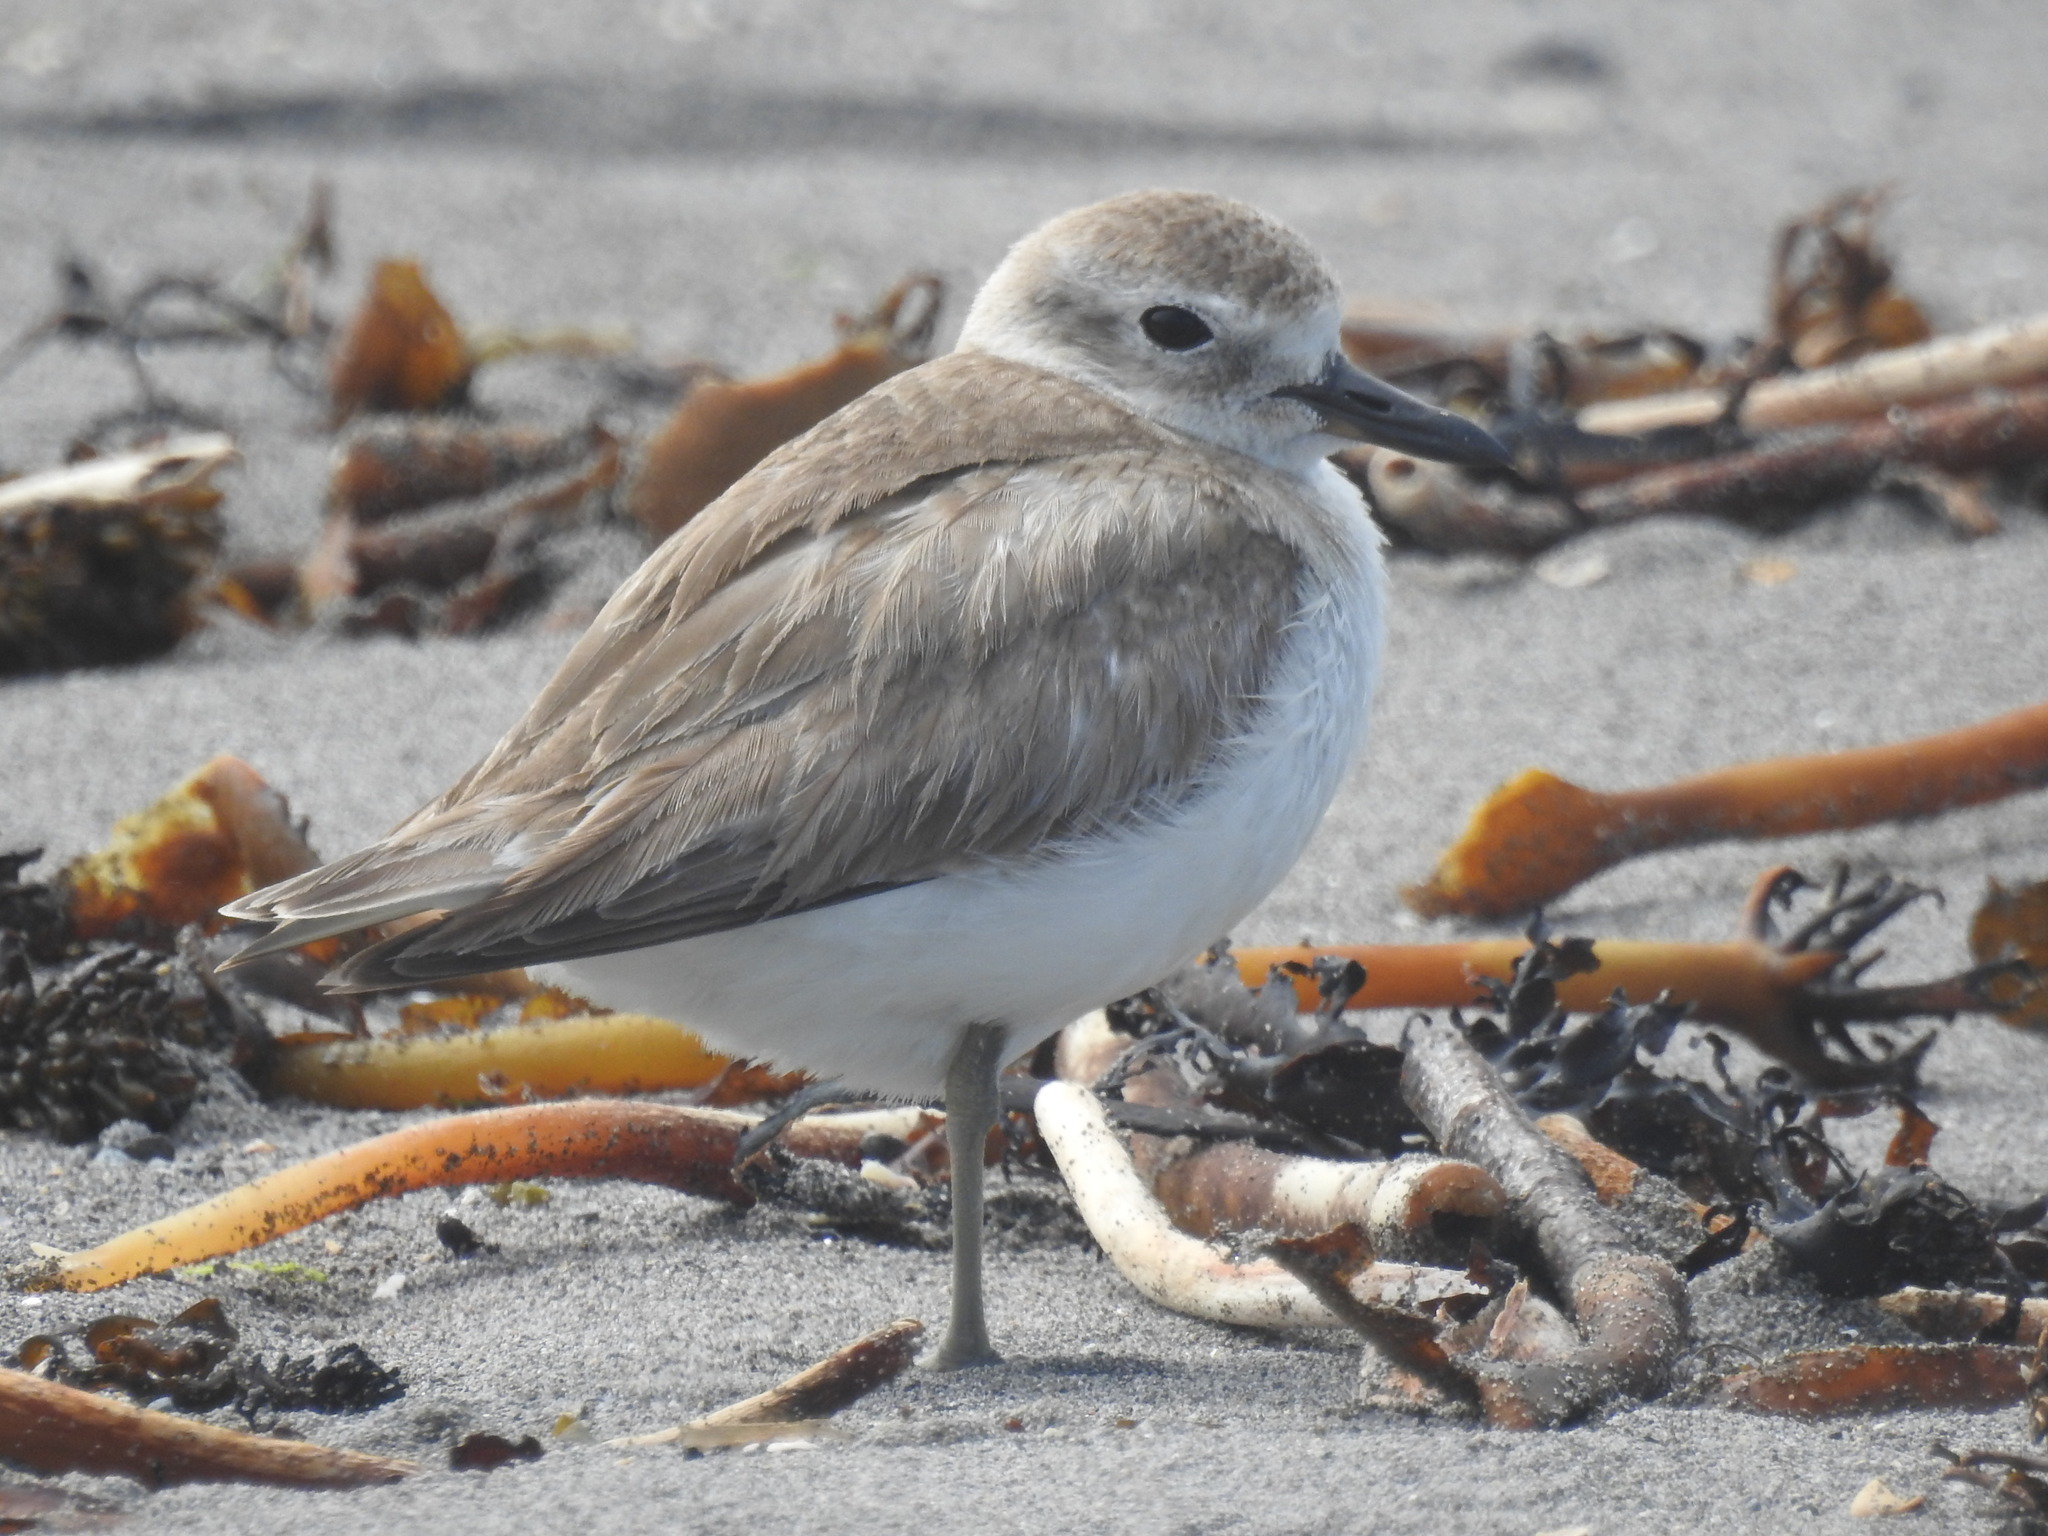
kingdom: Animalia
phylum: Chordata
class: Aves
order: Charadriiformes
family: Charadriidae
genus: Anarhynchus
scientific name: Anarhynchus
